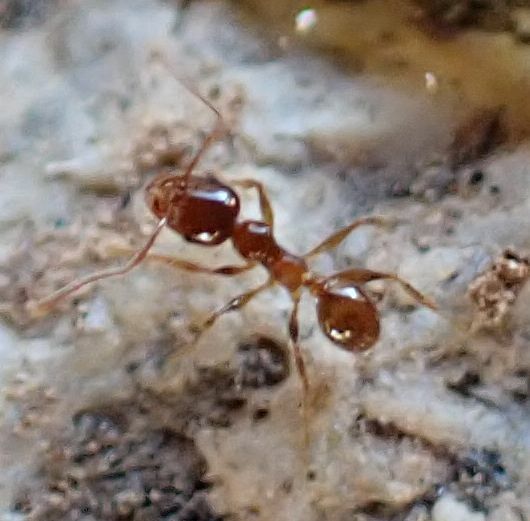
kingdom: Animalia
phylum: Arthropoda
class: Insecta
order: Hymenoptera
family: Formicidae
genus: Pheidole
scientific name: Pheidole pallidula
